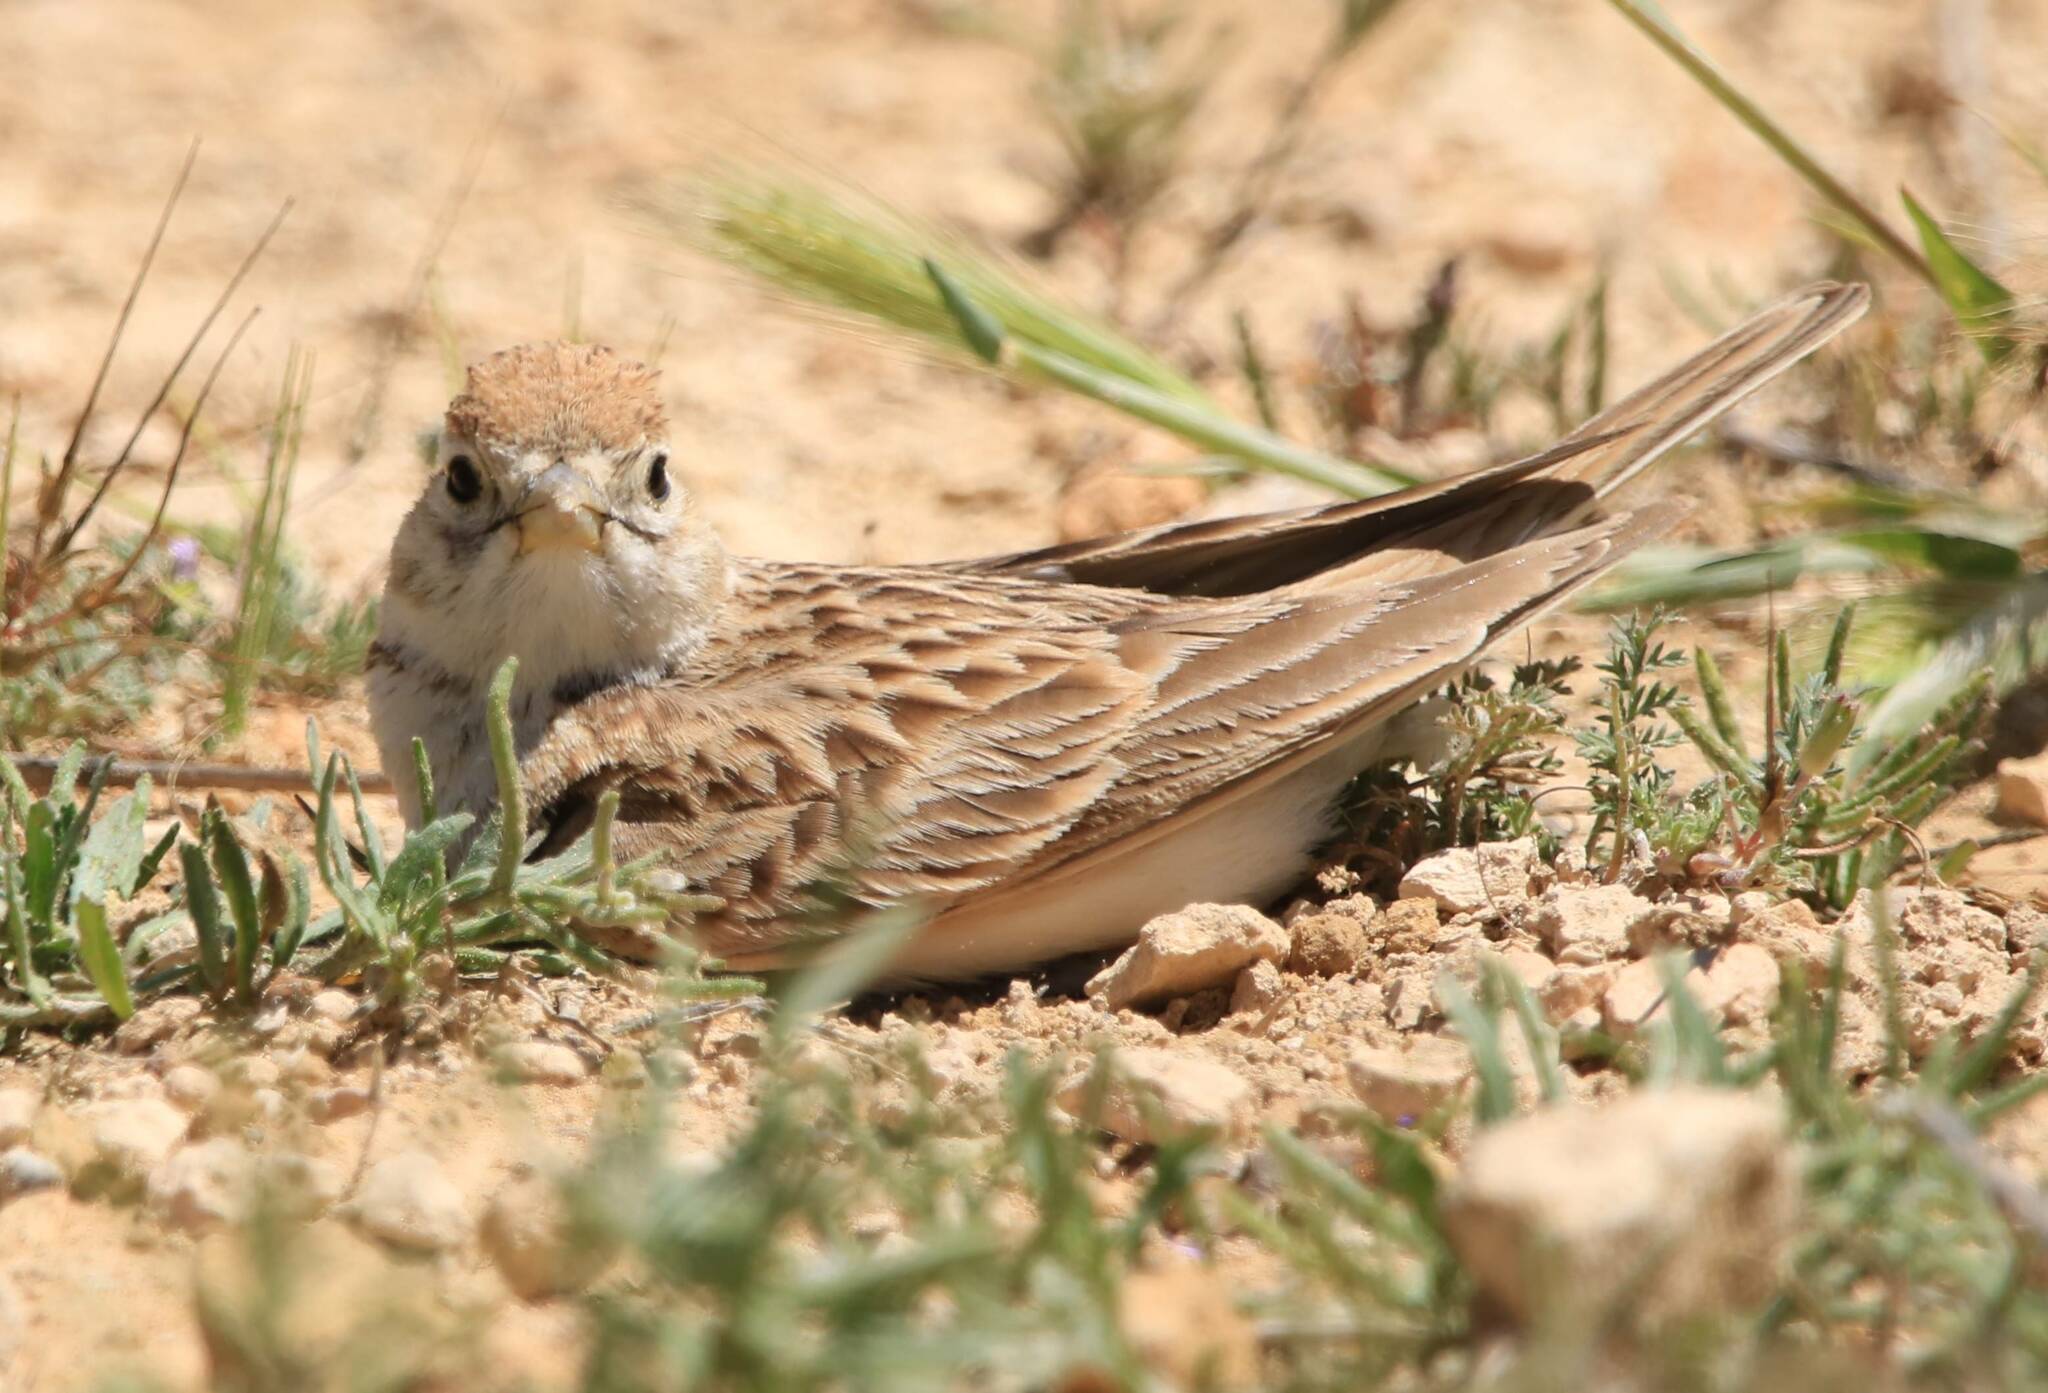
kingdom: Animalia
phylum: Chordata
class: Aves
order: Passeriformes
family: Alaudidae
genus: Calandrella
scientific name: Calandrella brachydactyla
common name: Greater short-toed lark
